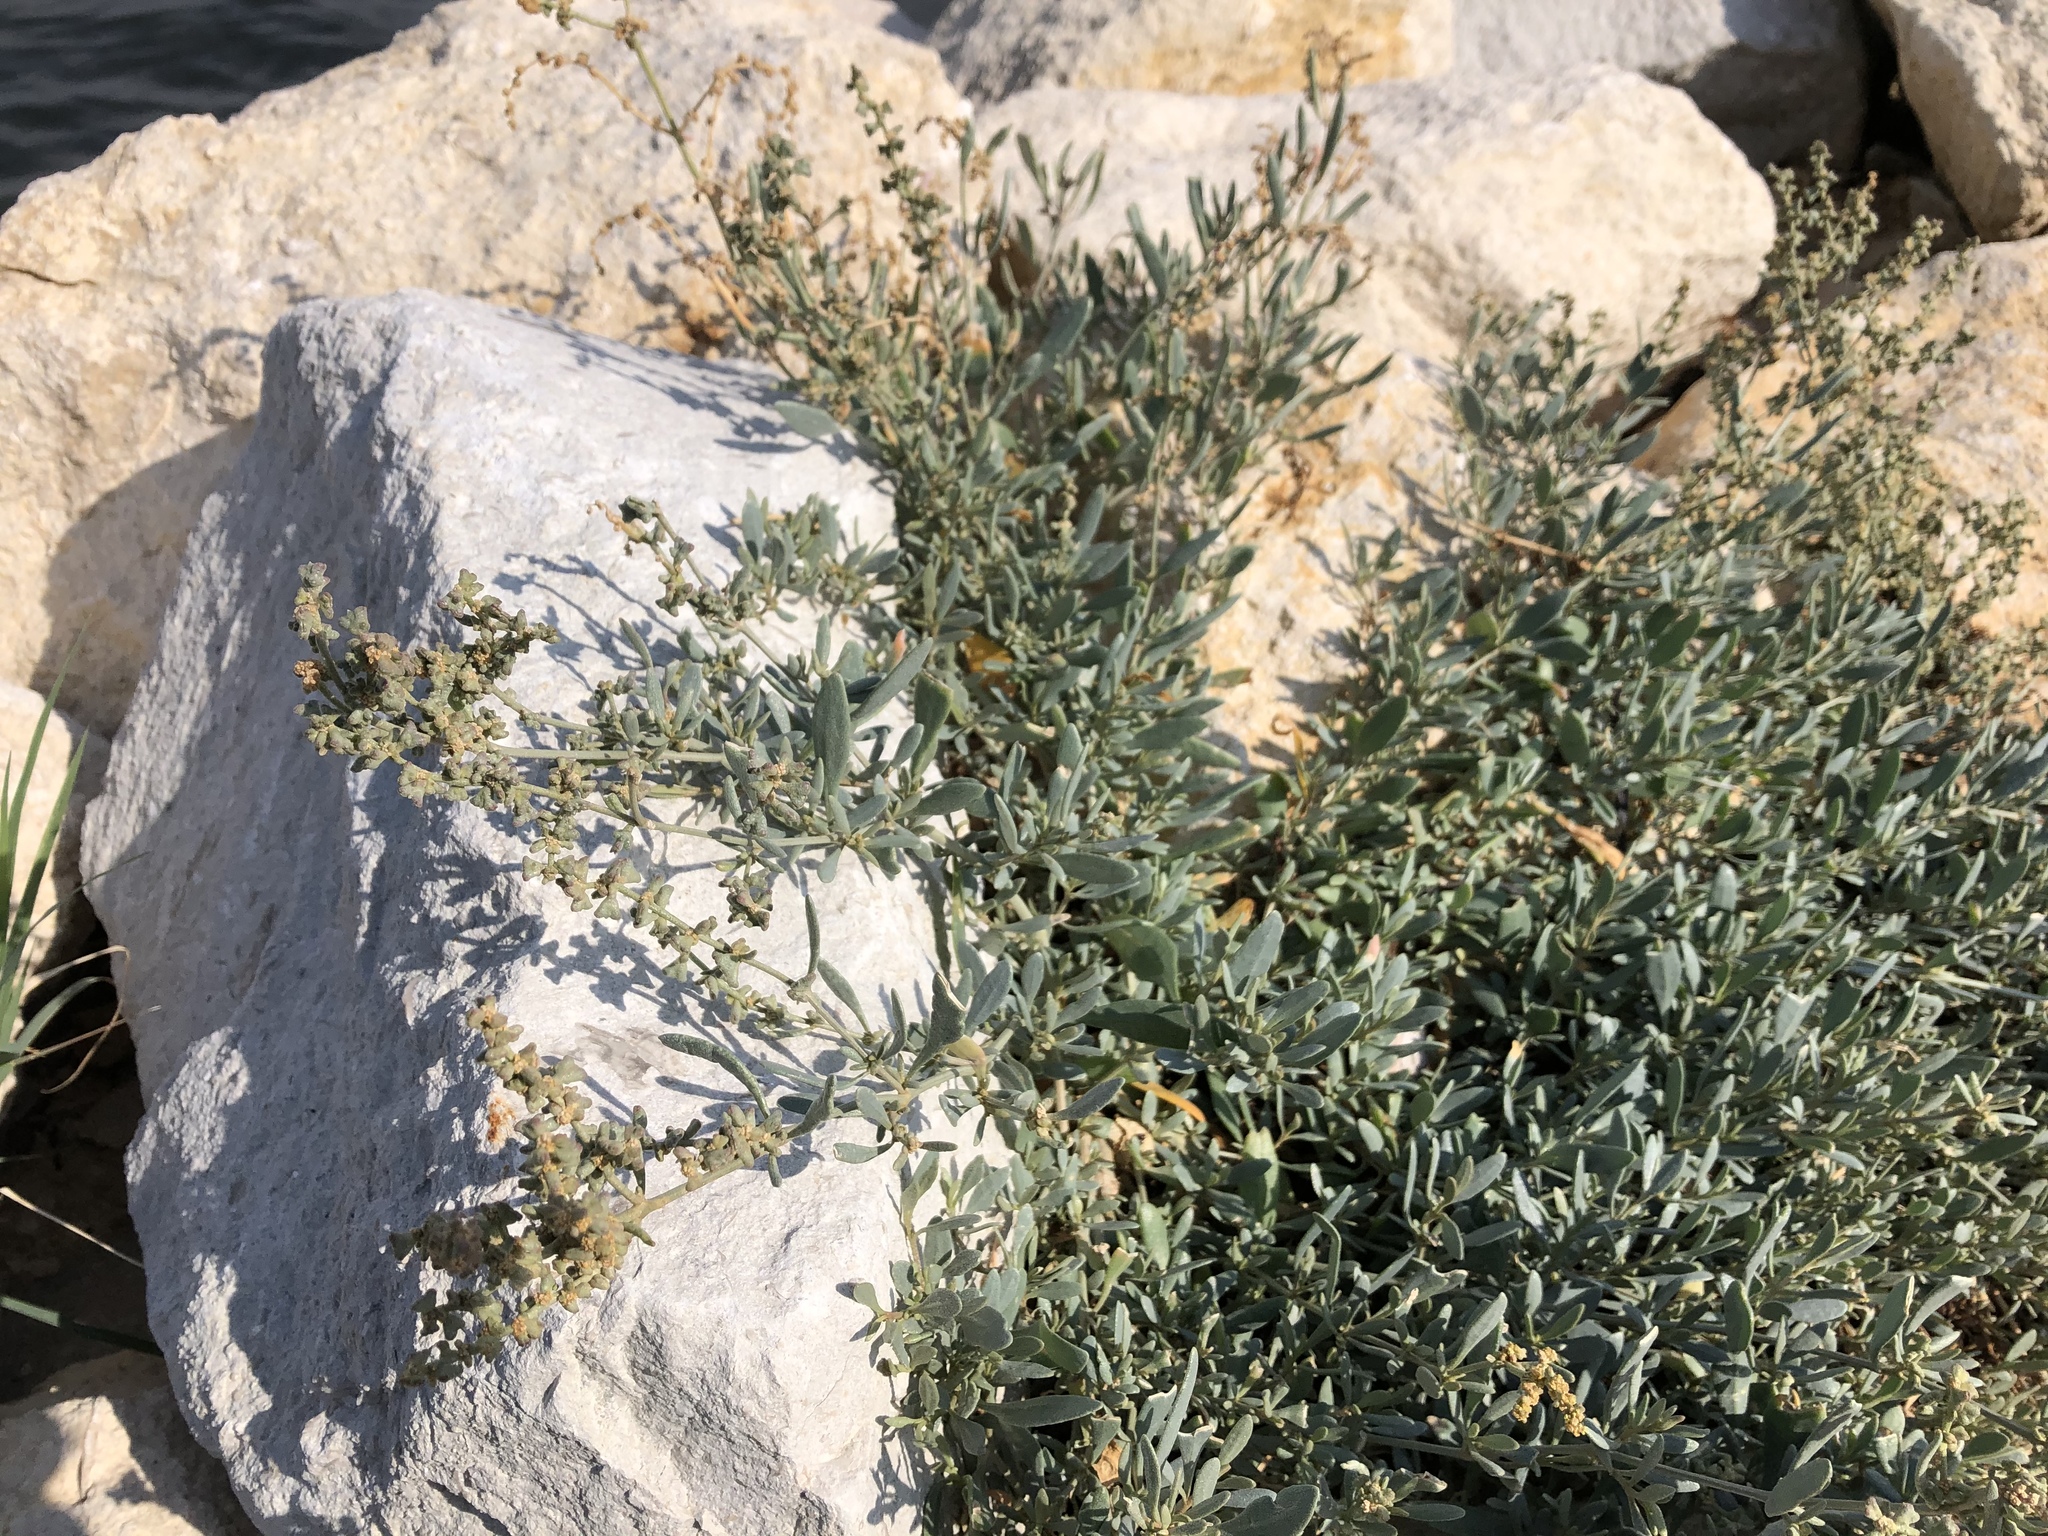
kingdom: Plantae
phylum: Tracheophyta
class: Magnoliopsida
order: Caryophyllales
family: Amaranthaceae
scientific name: Amaranthaceae
